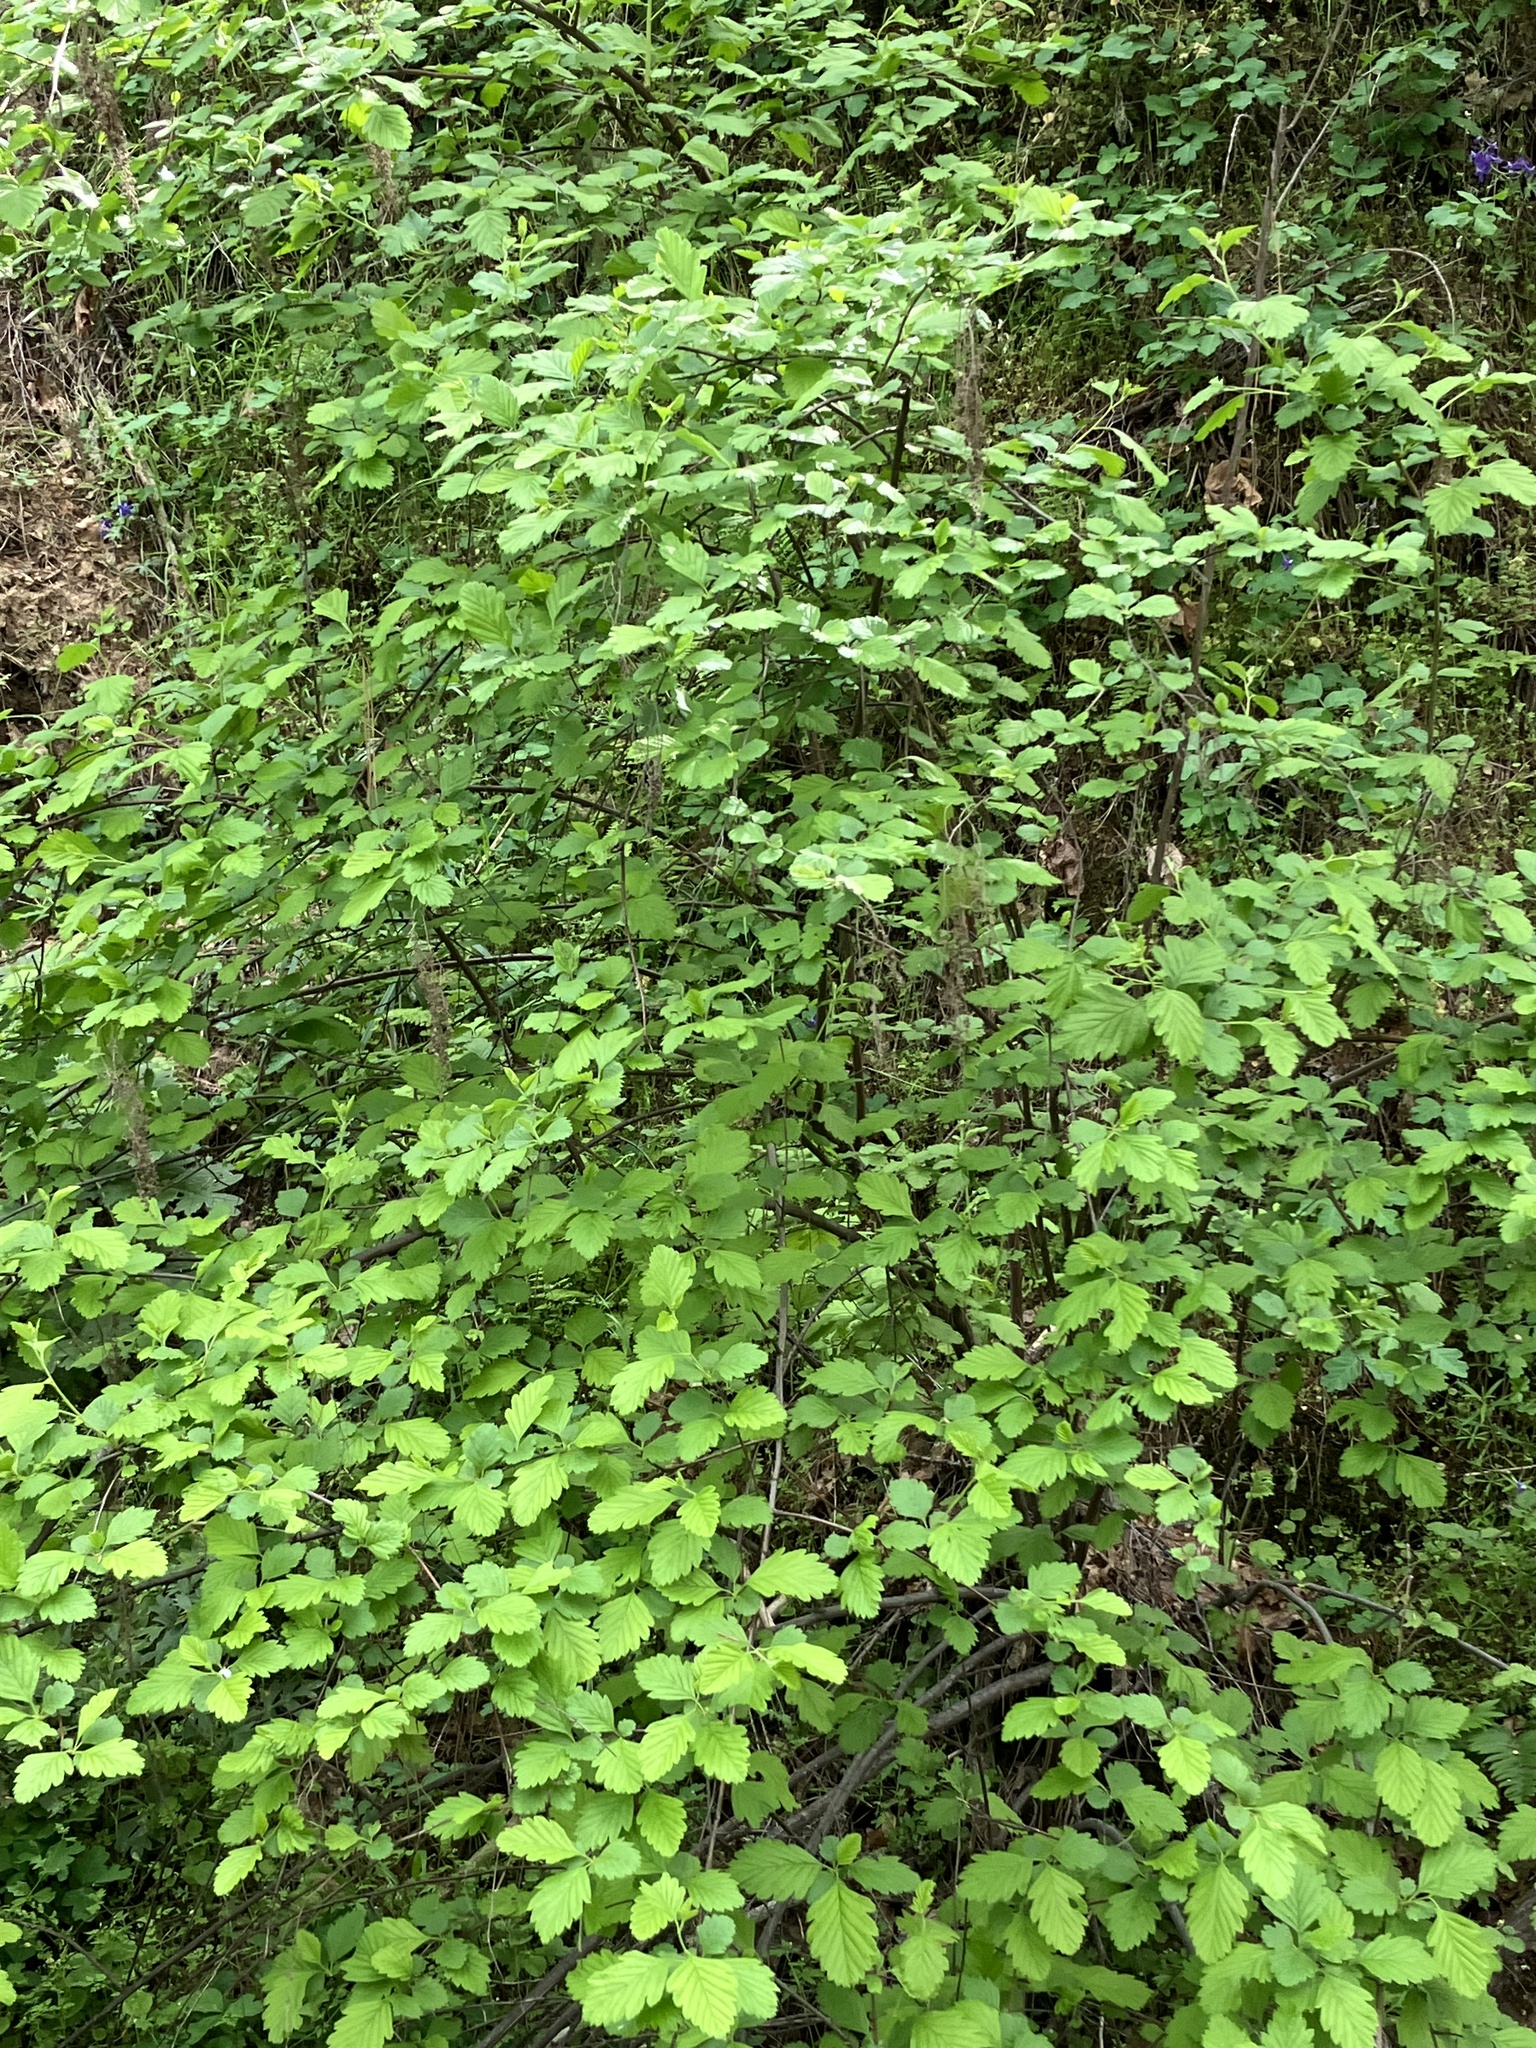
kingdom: Plantae
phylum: Tracheophyta
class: Magnoliopsida
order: Rosales
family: Rosaceae
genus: Holodiscus
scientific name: Holodiscus discolor
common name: Oceanspray
